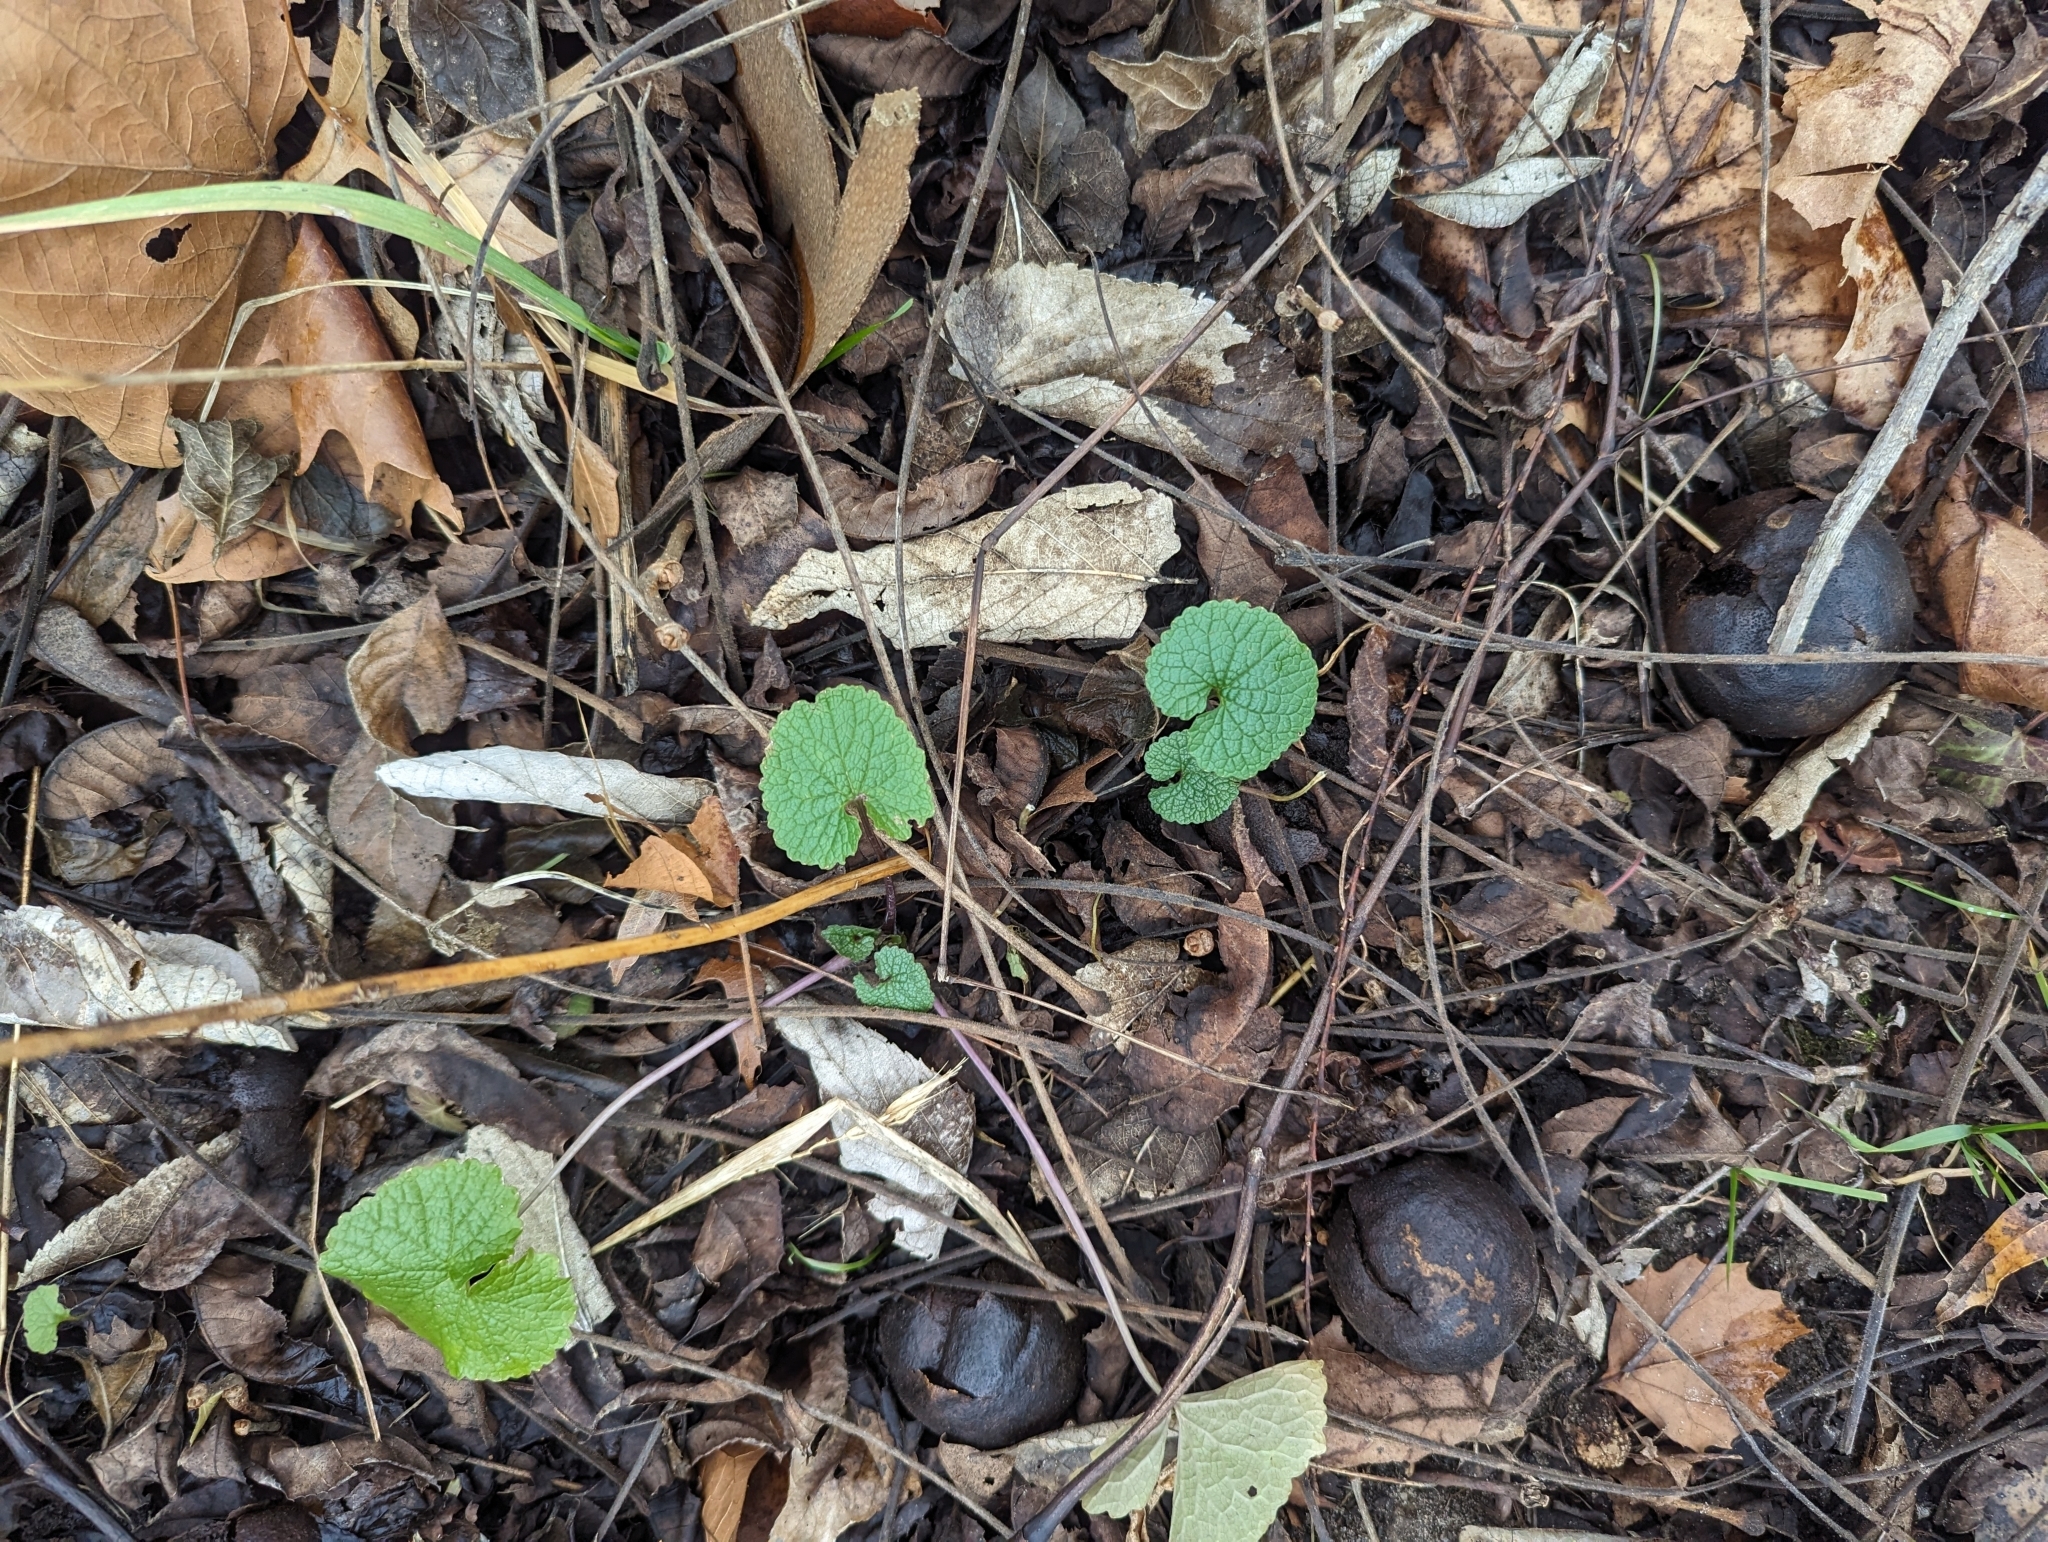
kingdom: Plantae
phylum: Tracheophyta
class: Magnoliopsida
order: Brassicales
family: Brassicaceae
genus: Alliaria
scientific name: Alliaria petiolata
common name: Garlic mustard
